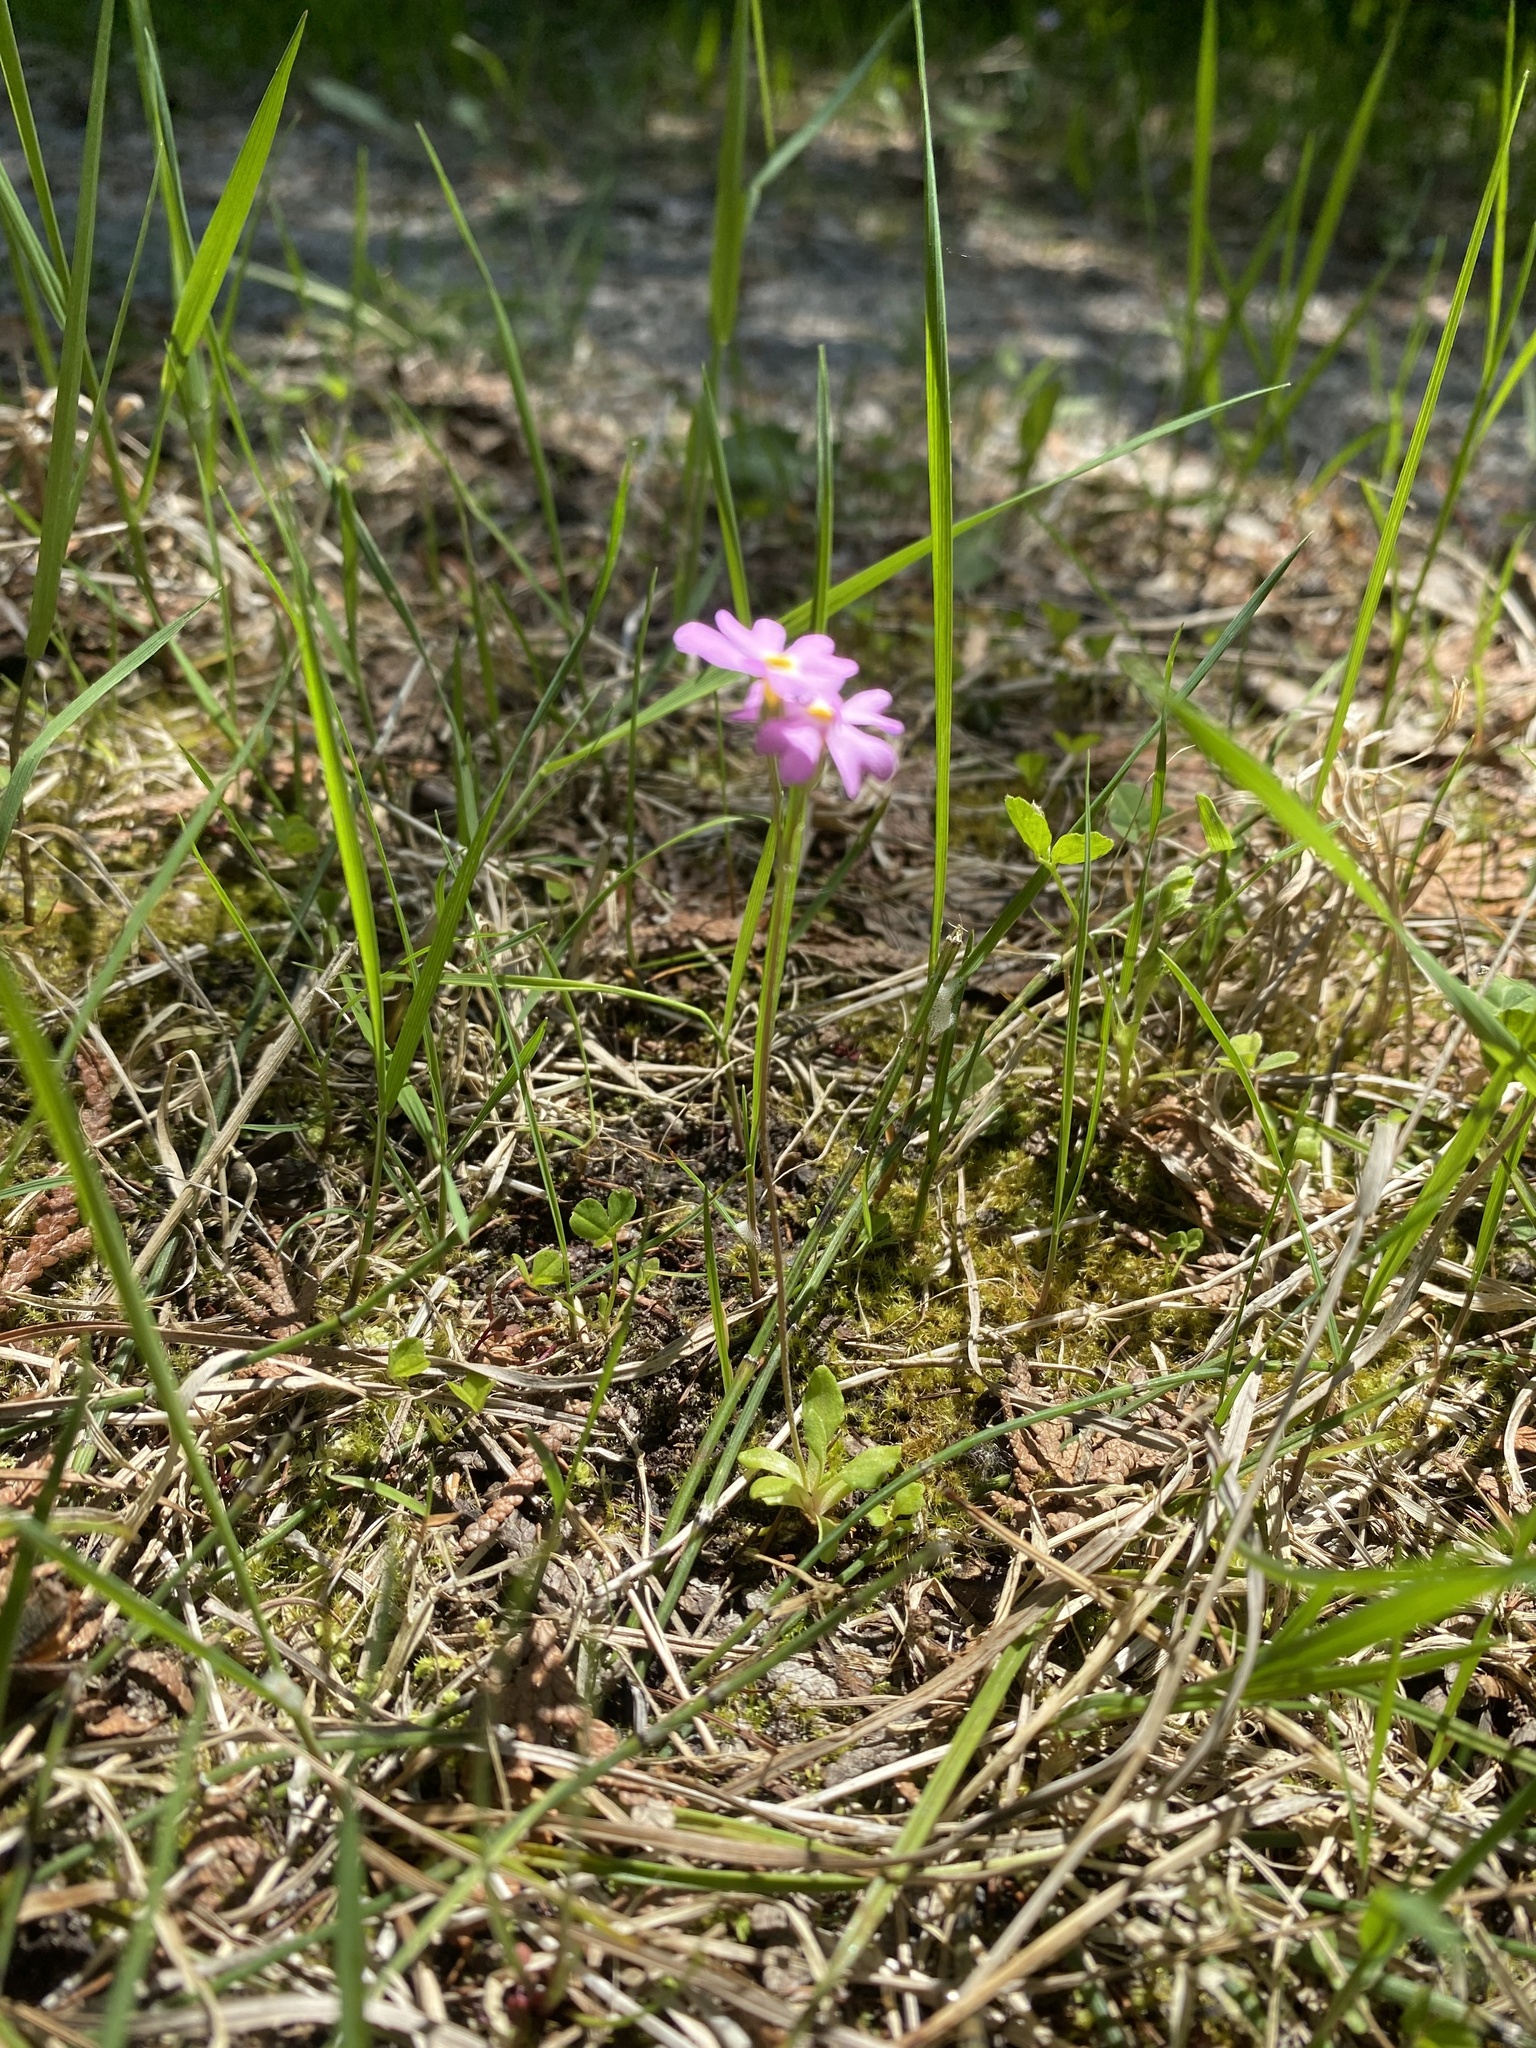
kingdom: Plantae
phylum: Tracheophyta
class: Magnoliopsida
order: Ericales
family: Primulaceae
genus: Primula
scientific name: Primula mistassinica
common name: Bird's-eye primrose
